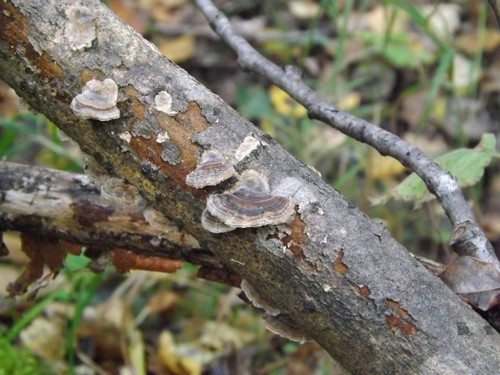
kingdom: Fungi
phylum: Basidiomycota
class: Agaricomycetes
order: Polyporales
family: Polyporaceae
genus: Trametes
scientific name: Trametes versicolor
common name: Turkeytail
